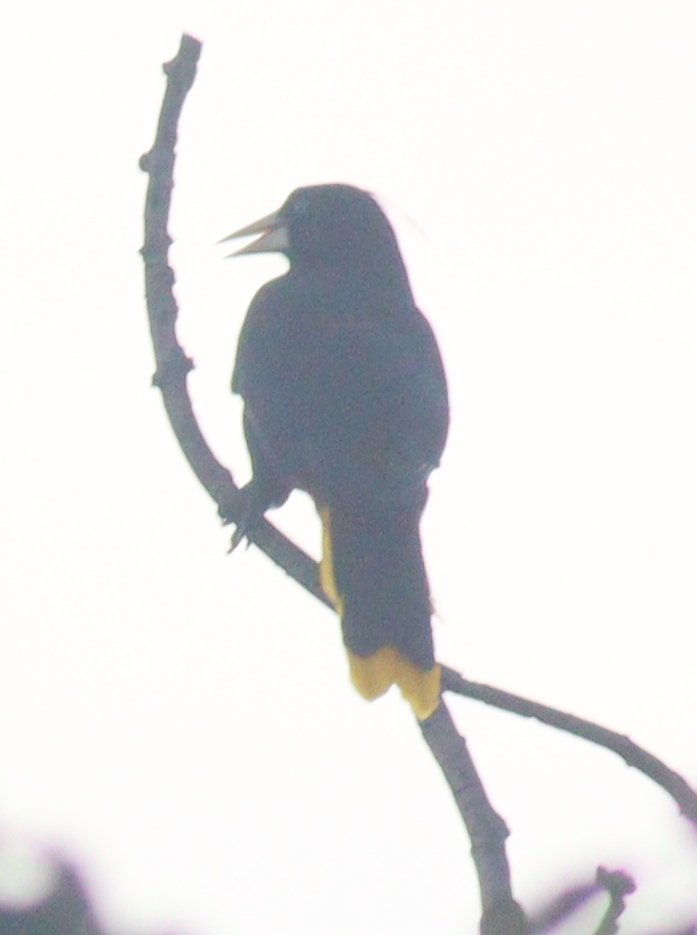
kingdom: Animalia
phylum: Chordata
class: Aves
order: Passeriformes
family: Icteridae
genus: Psarocolius
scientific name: Psarocolius decumanus
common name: Crested oropendola
